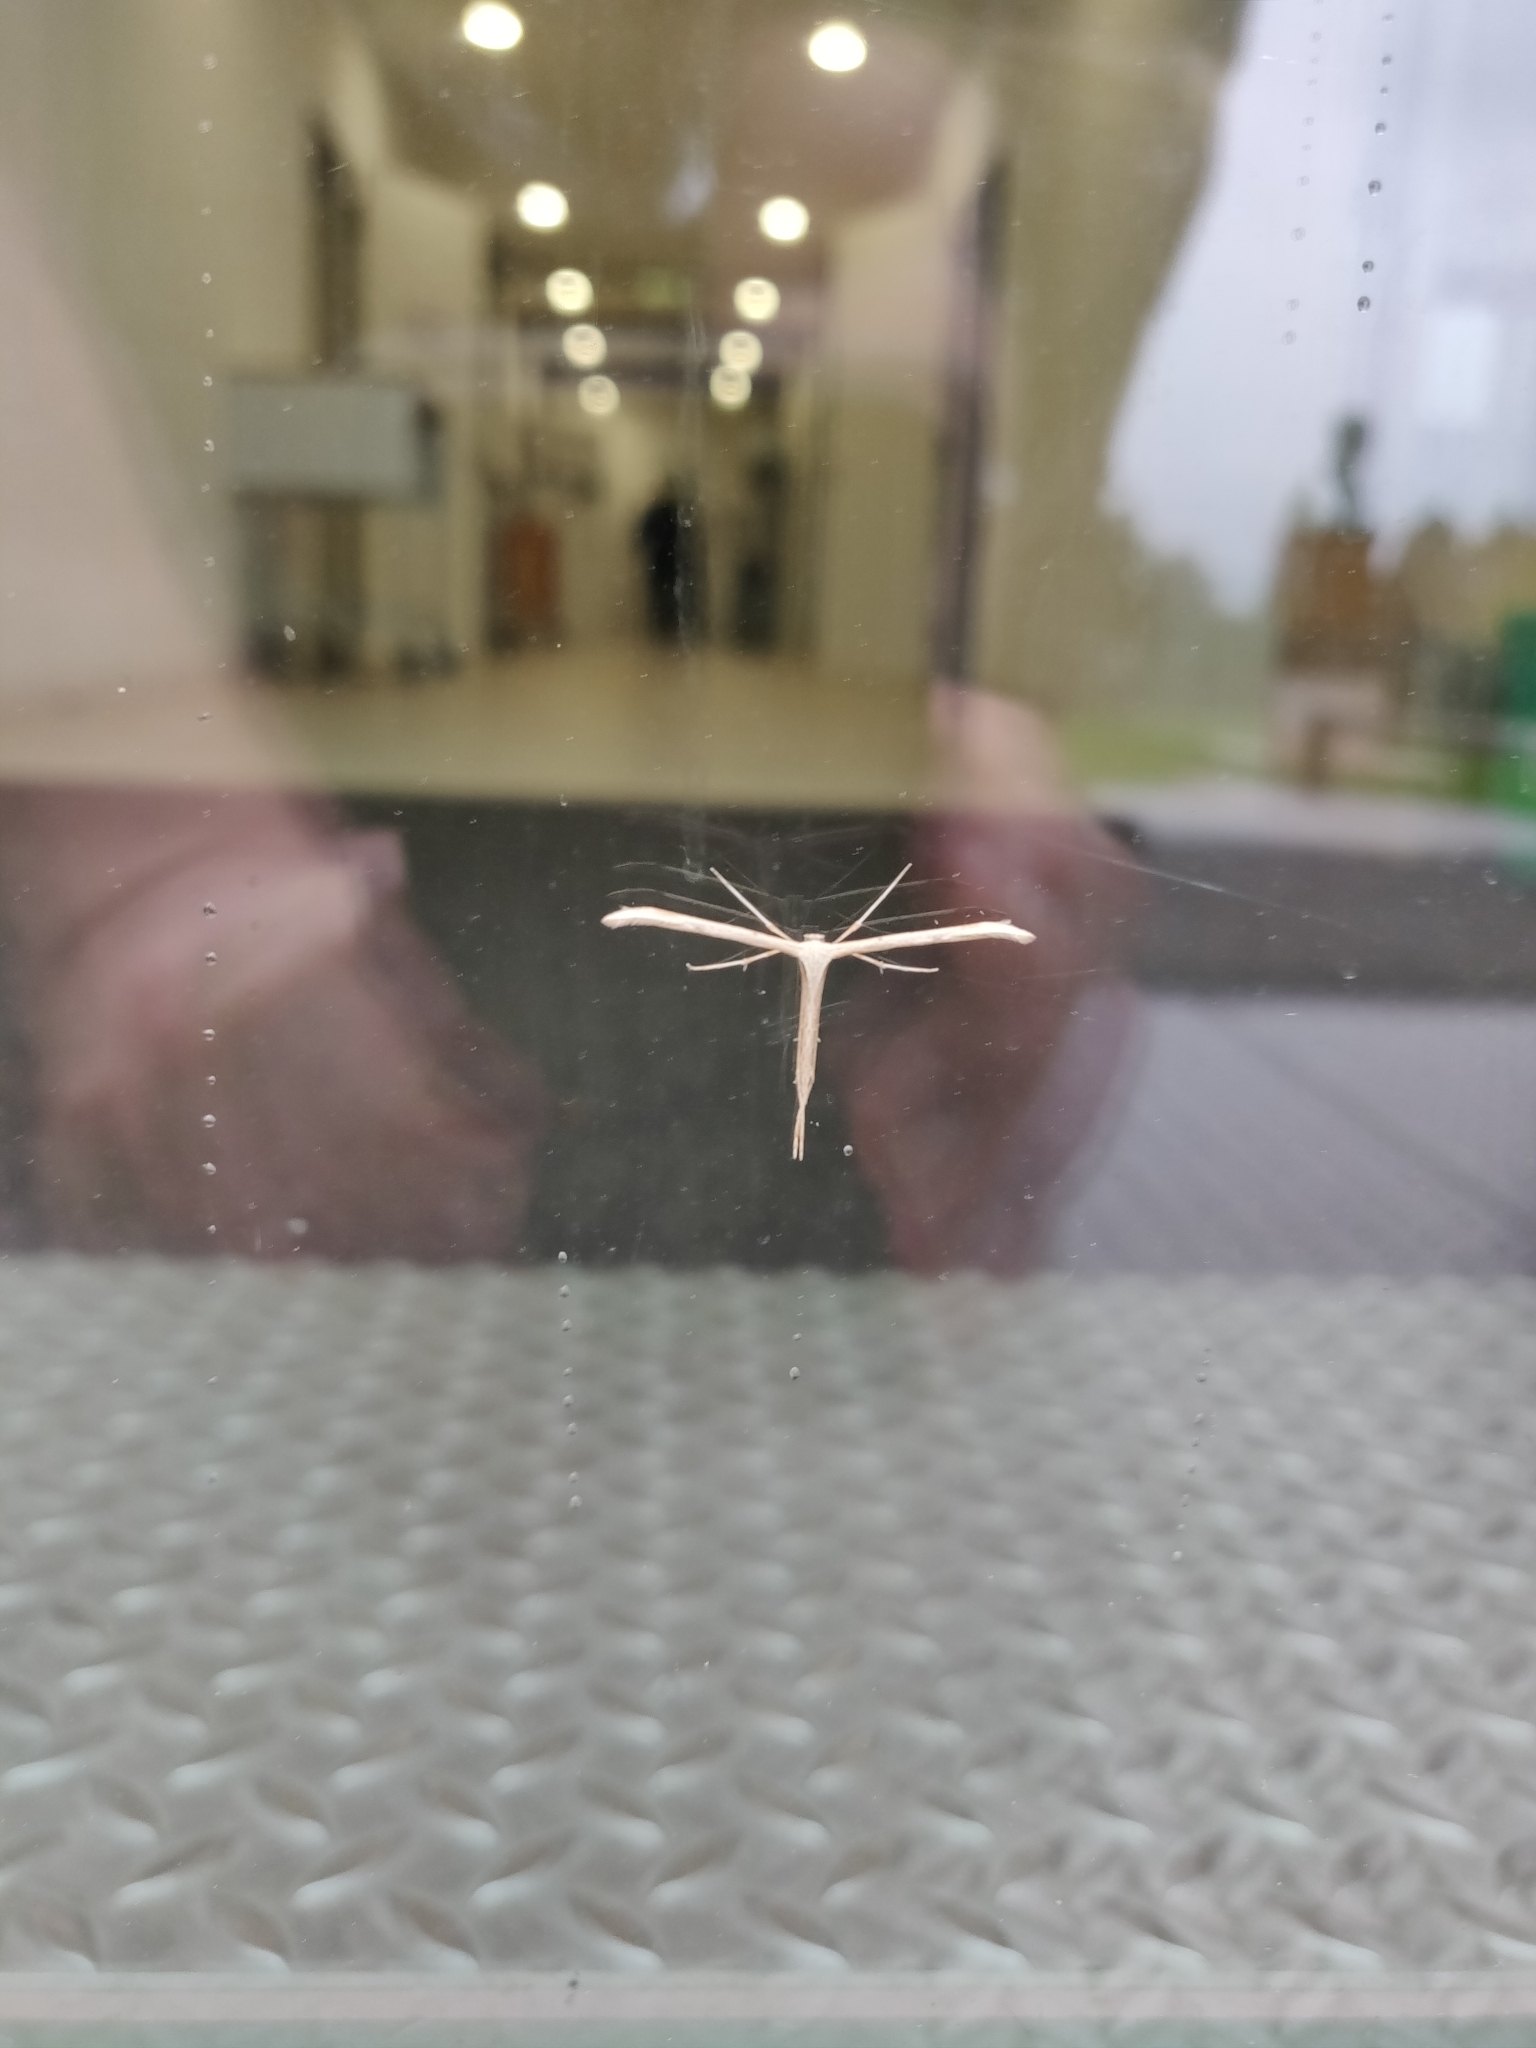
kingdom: Animalia
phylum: Arthropoda
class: Insecta
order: Lepidoptera
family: Pterophoridae
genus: Emmelina
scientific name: Emmelina monodactyla
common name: Common plume
